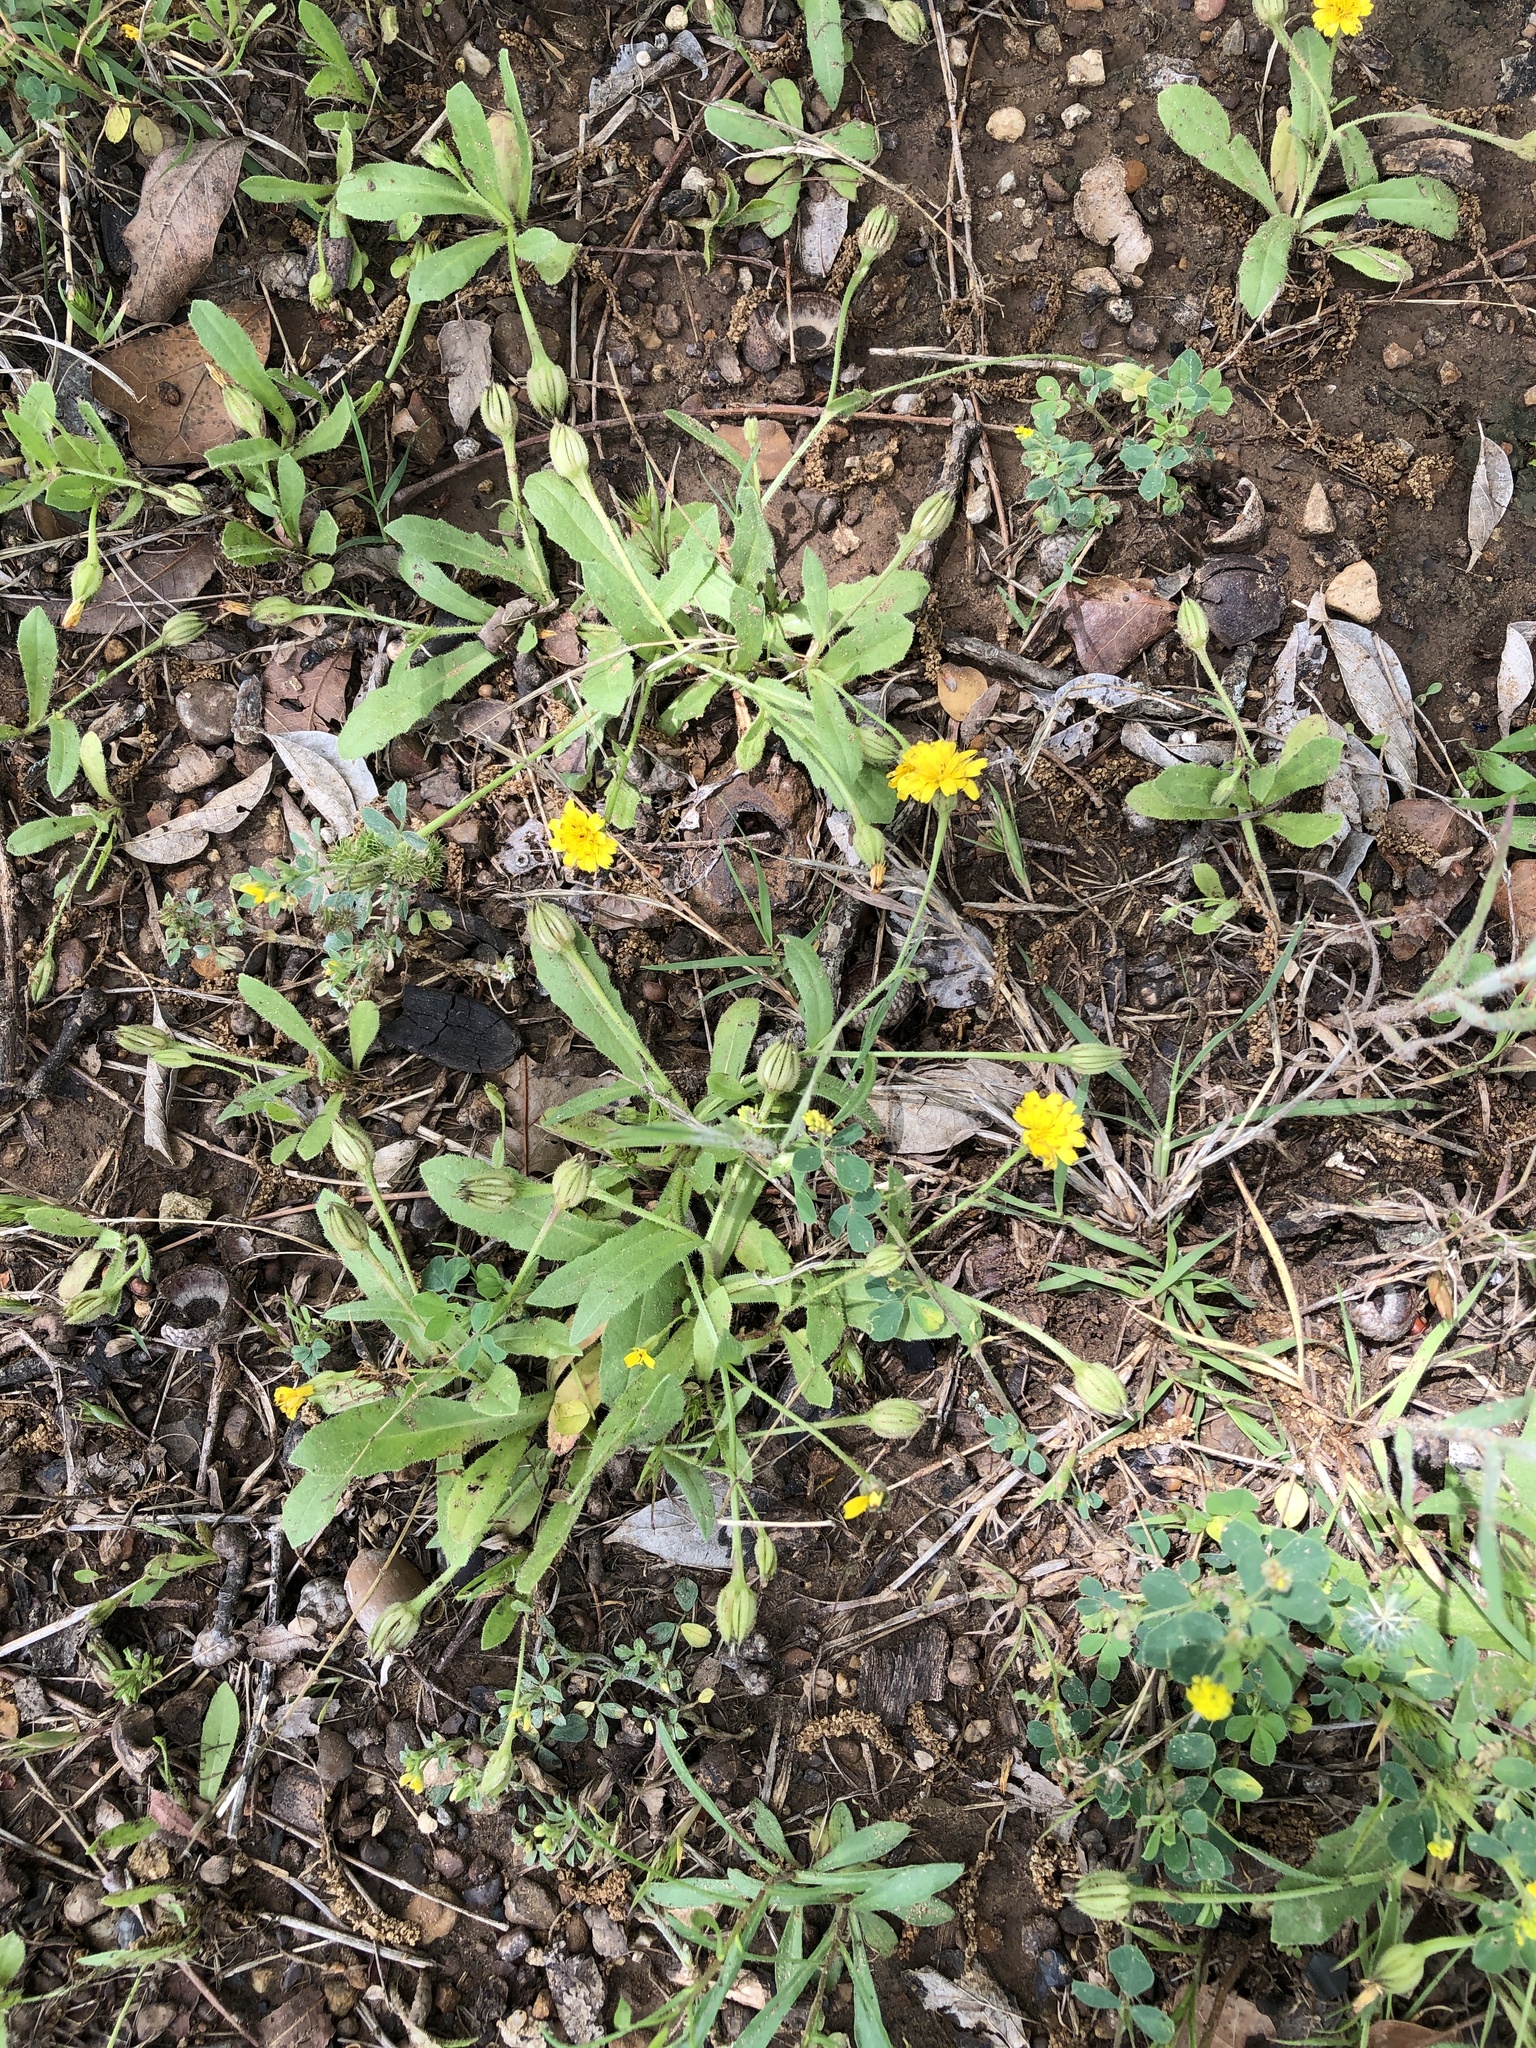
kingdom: Plantae
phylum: Tracheophyta
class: Magnoliopsida
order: Asterales
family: Asteraceae
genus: Hedypnois
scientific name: Hedypnois rhagadioloides
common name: Cretan weed
